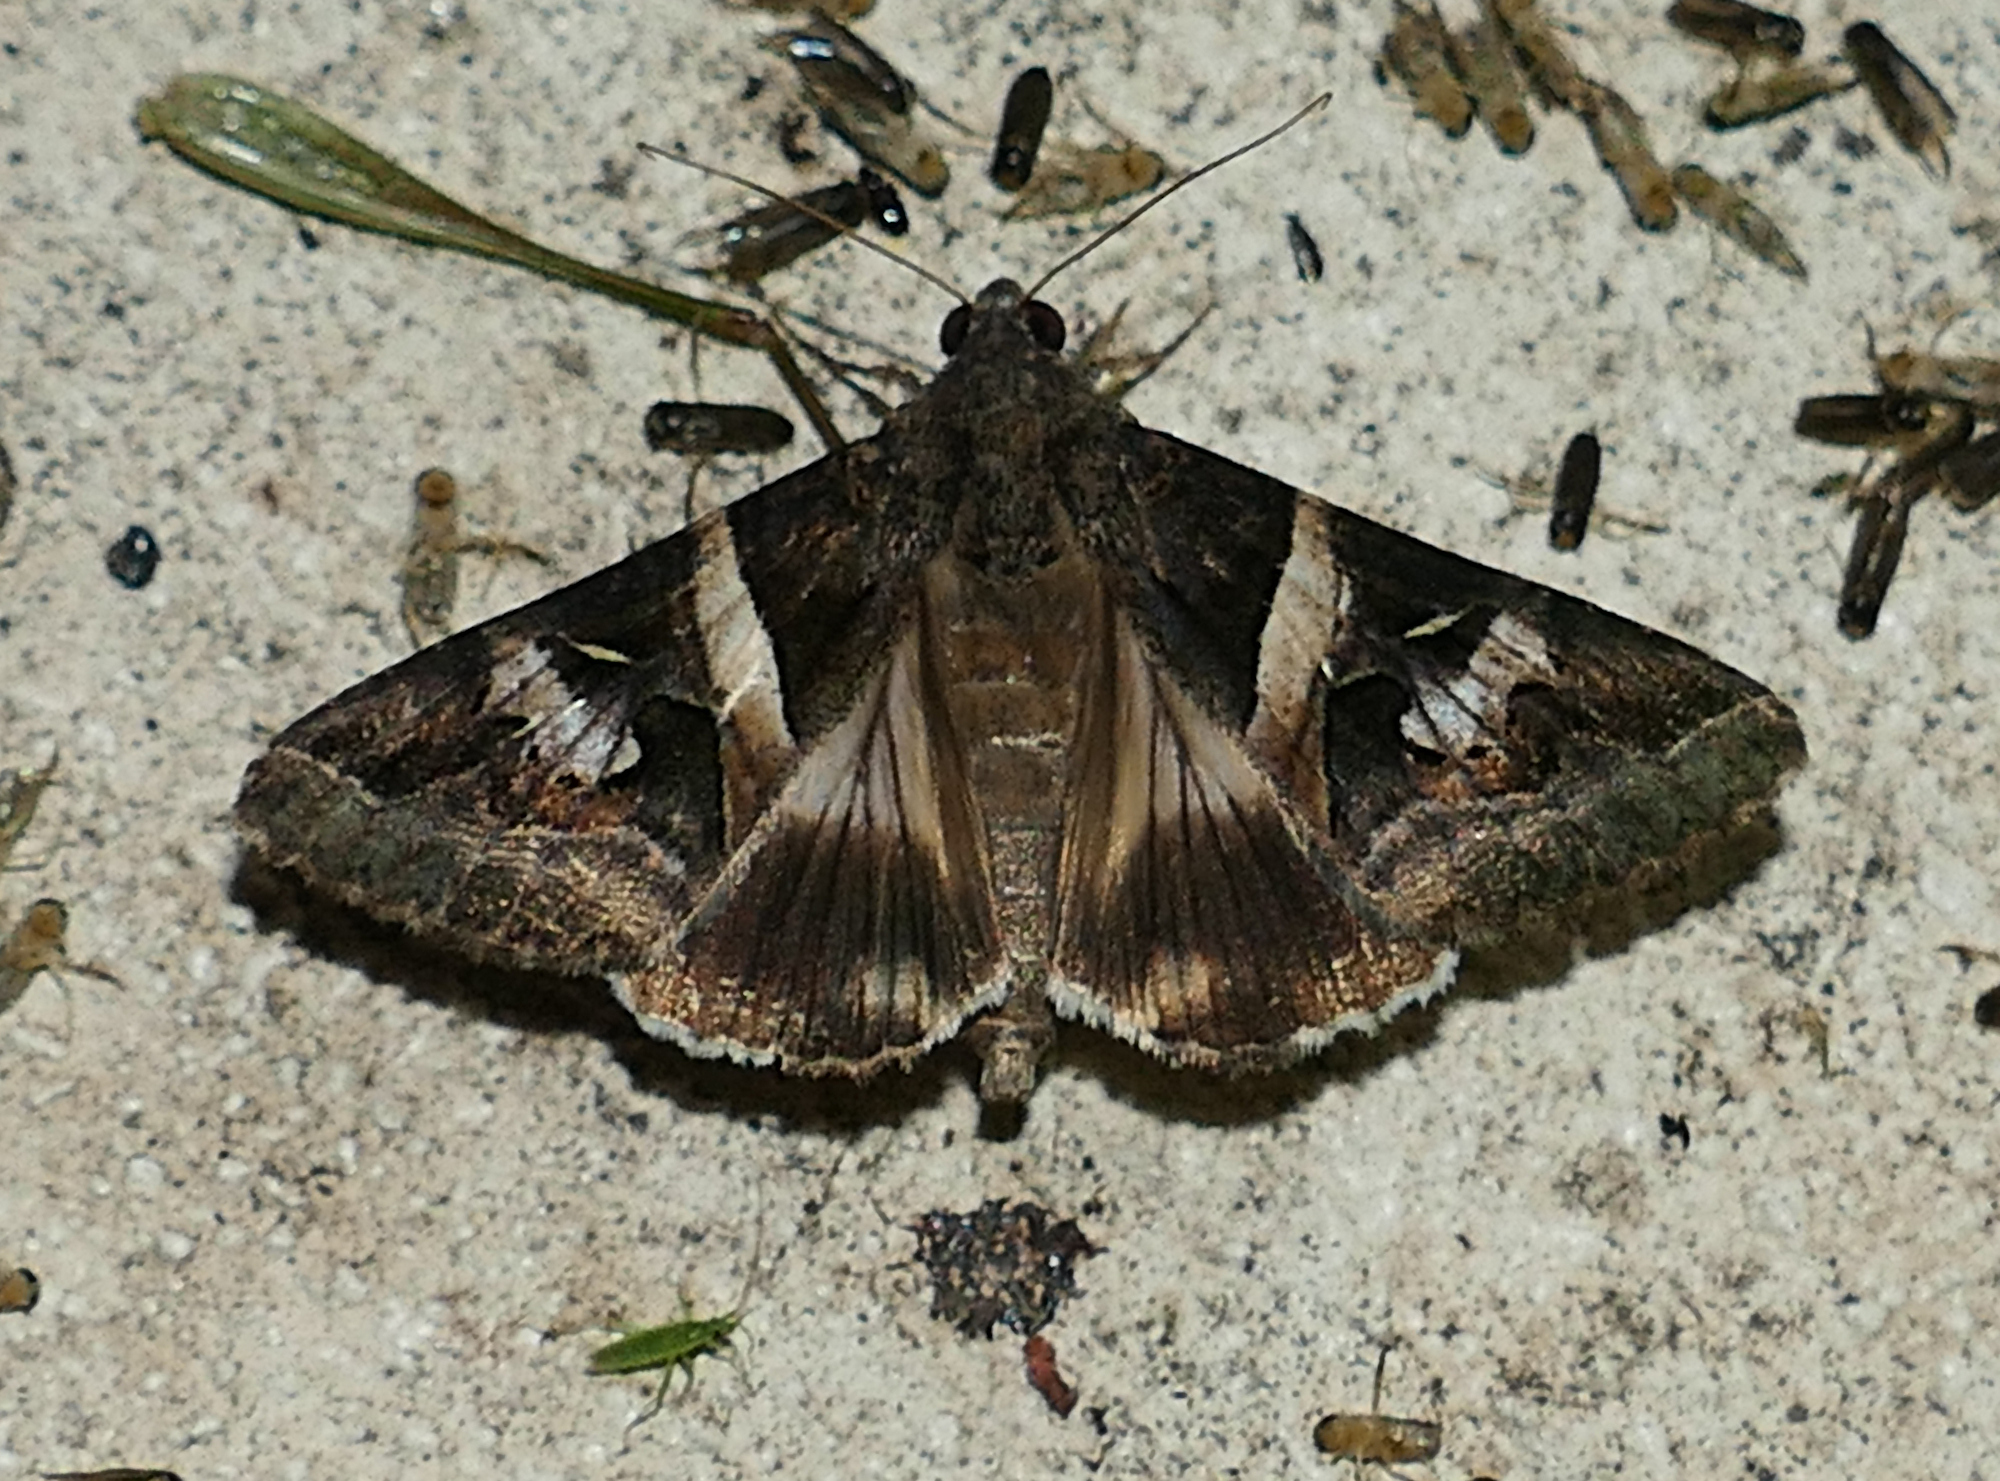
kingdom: Animalia
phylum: Arthropoda
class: Insecta
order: Lepidoptera
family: Erebidae
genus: Melipotis
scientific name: Melipotis indomita
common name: Moth
